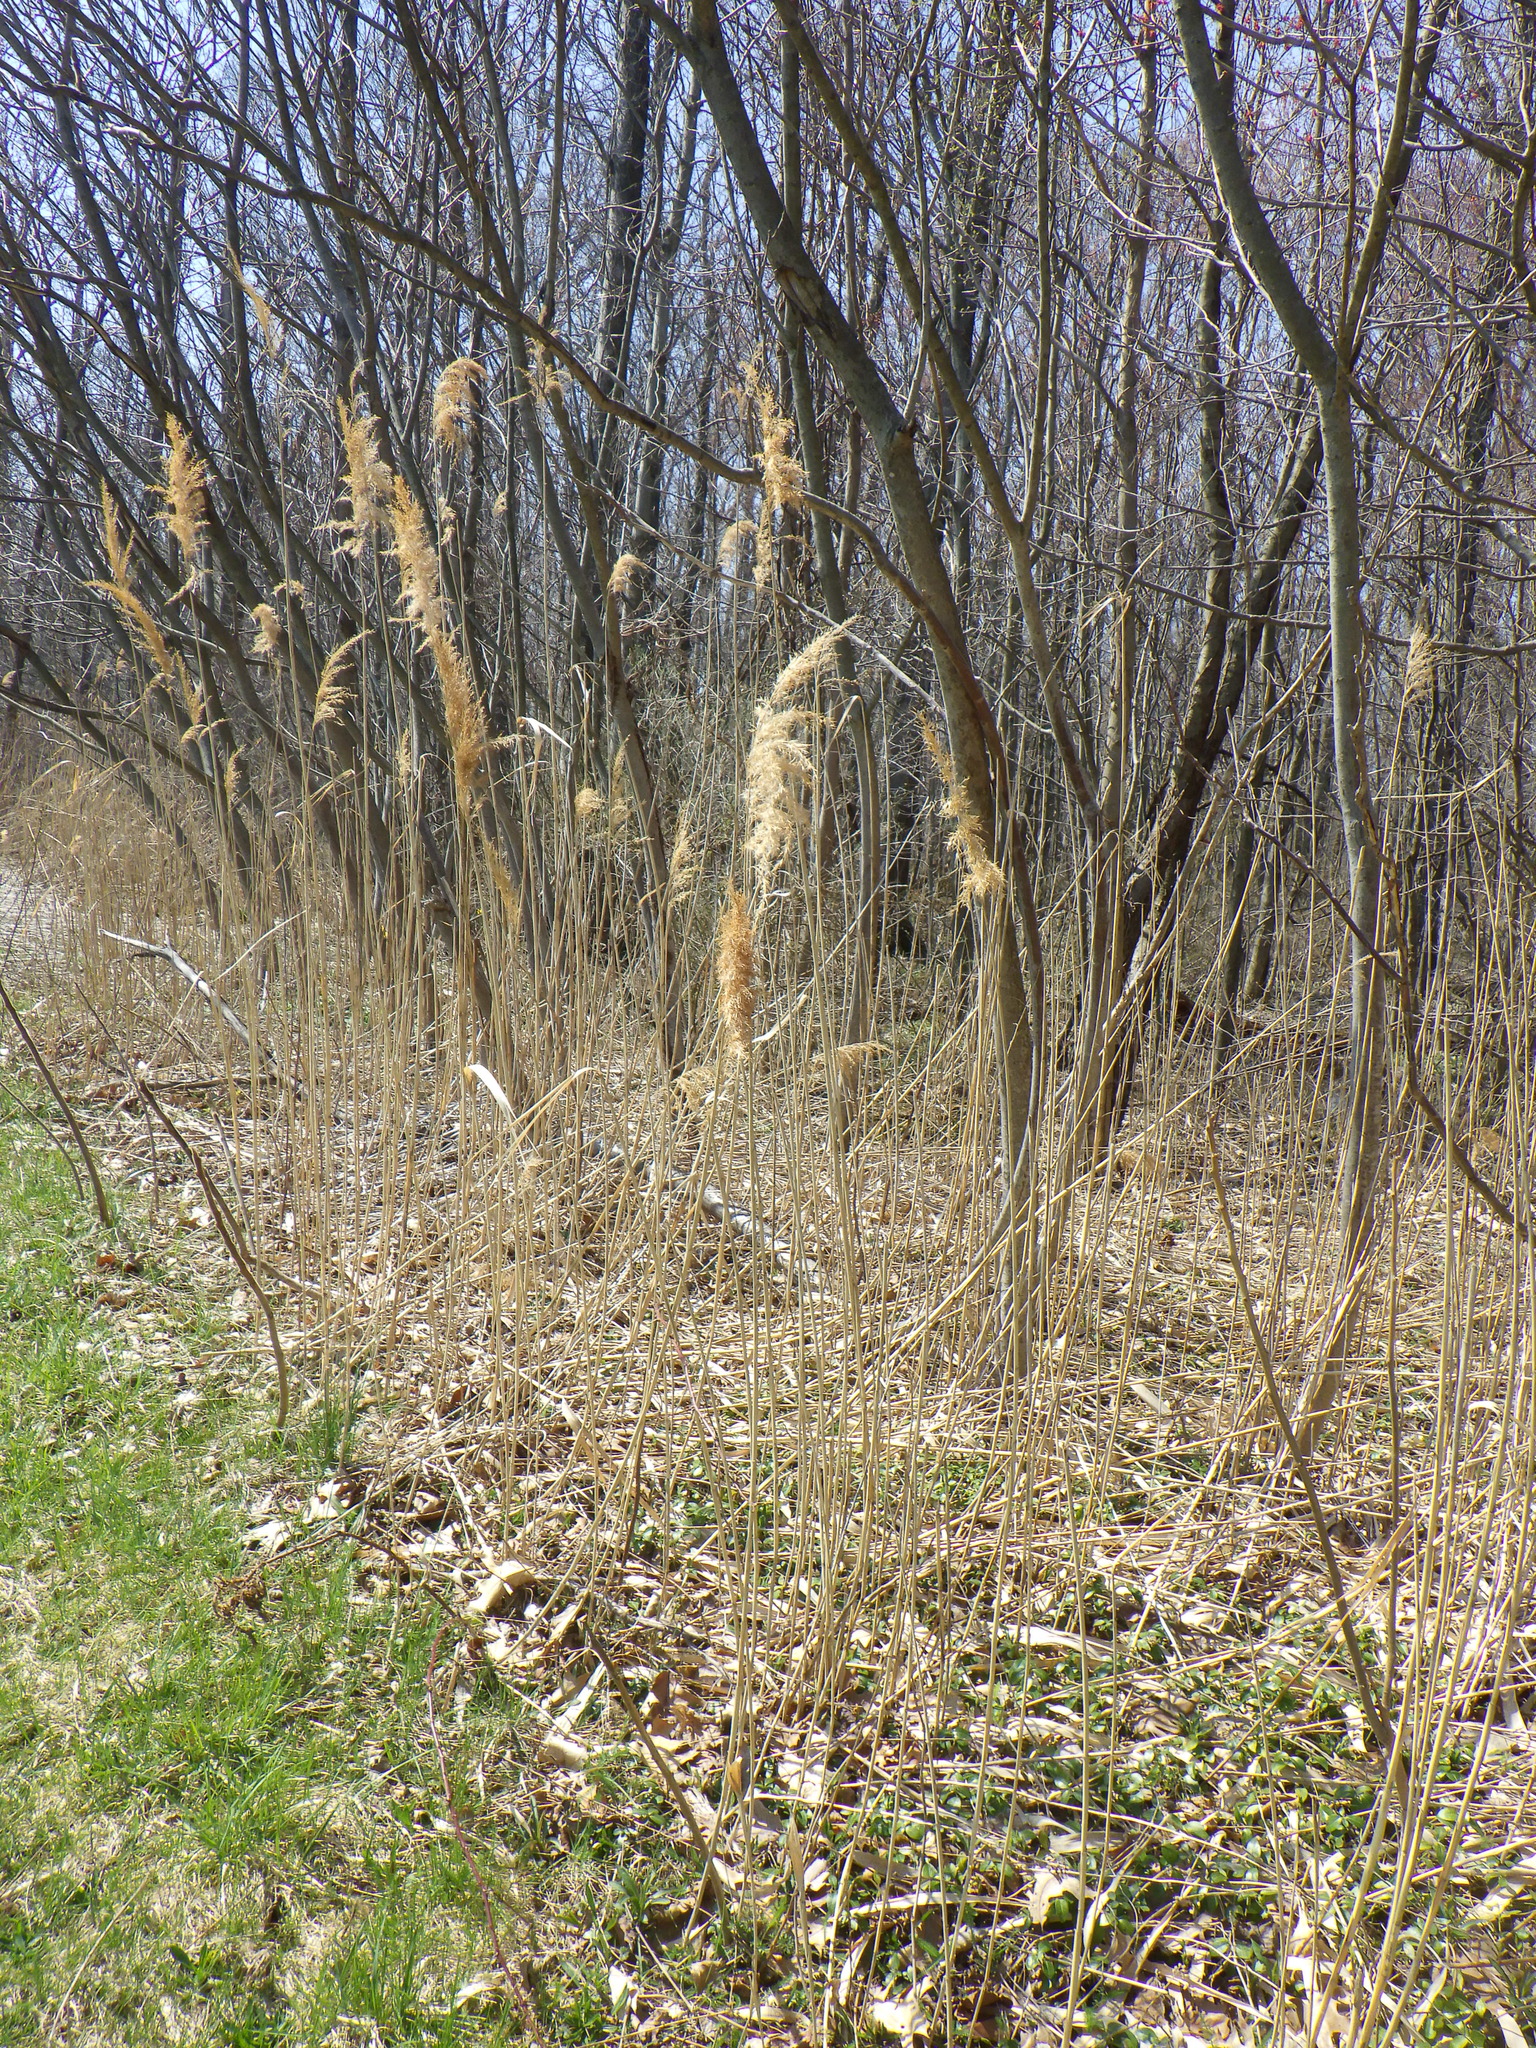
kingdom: Plantae
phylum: Tracheophyta
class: Liliopsida
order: Poales
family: Poaceae
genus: Phragmites
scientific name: Phragmites australis
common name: Common reed
